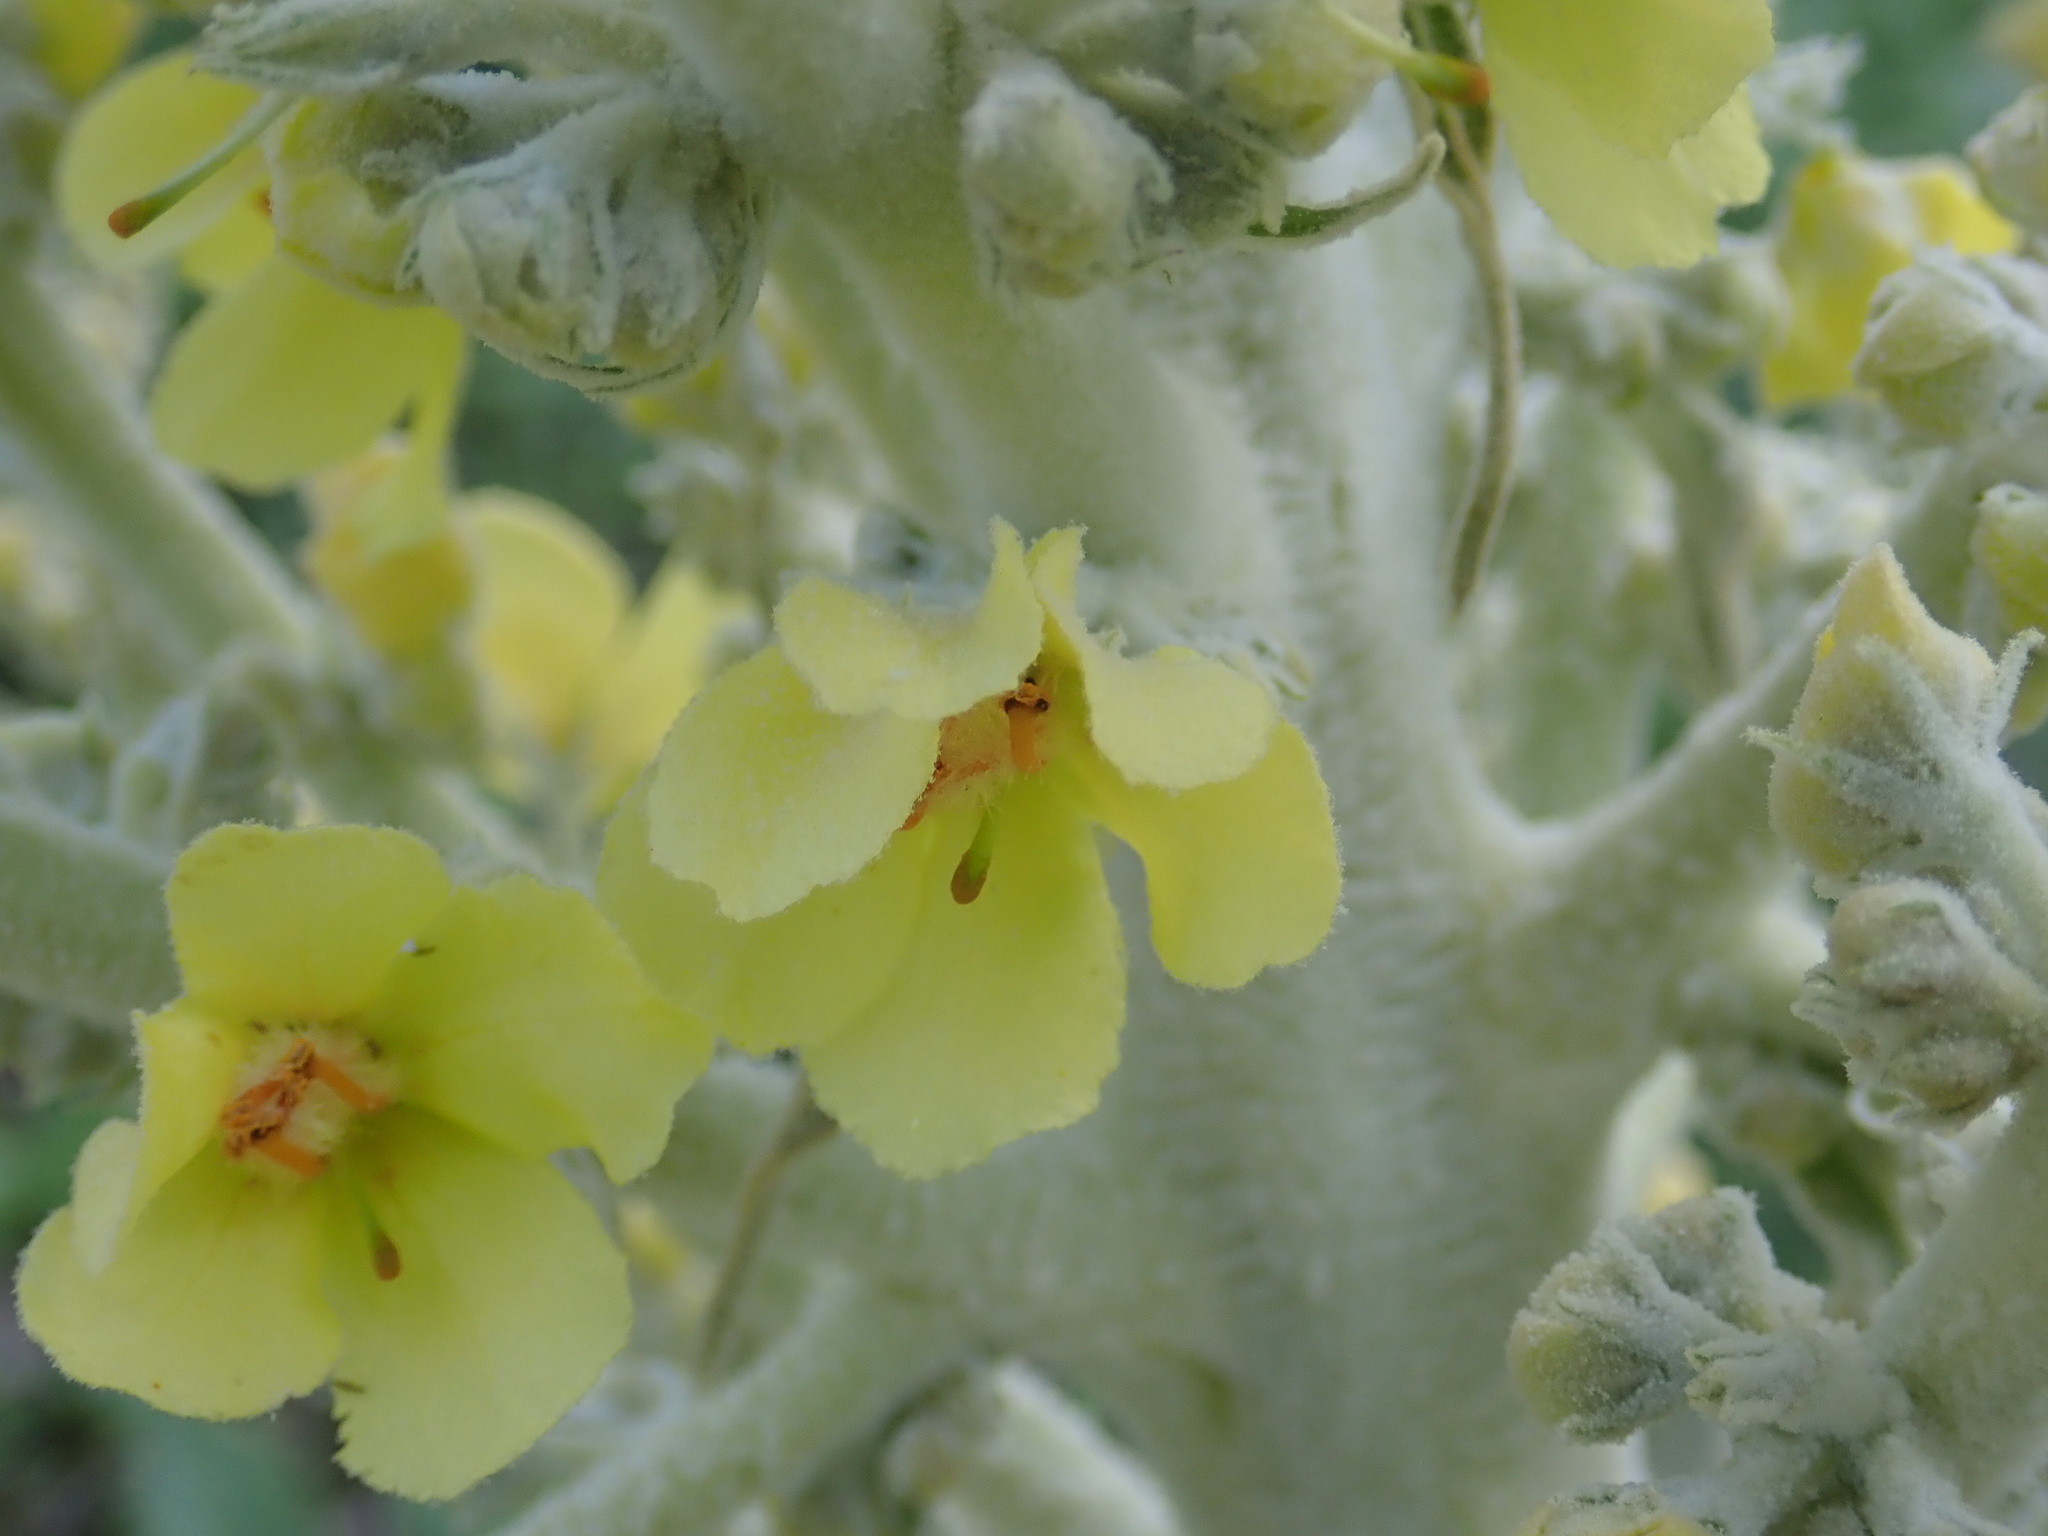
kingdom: Plantae
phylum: Tracheophyta
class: Magnoliopsida
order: Lamiales
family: Scrophulariaceae
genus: Verbascum
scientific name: Verbascum bombyciferum
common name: Broussa mullein
